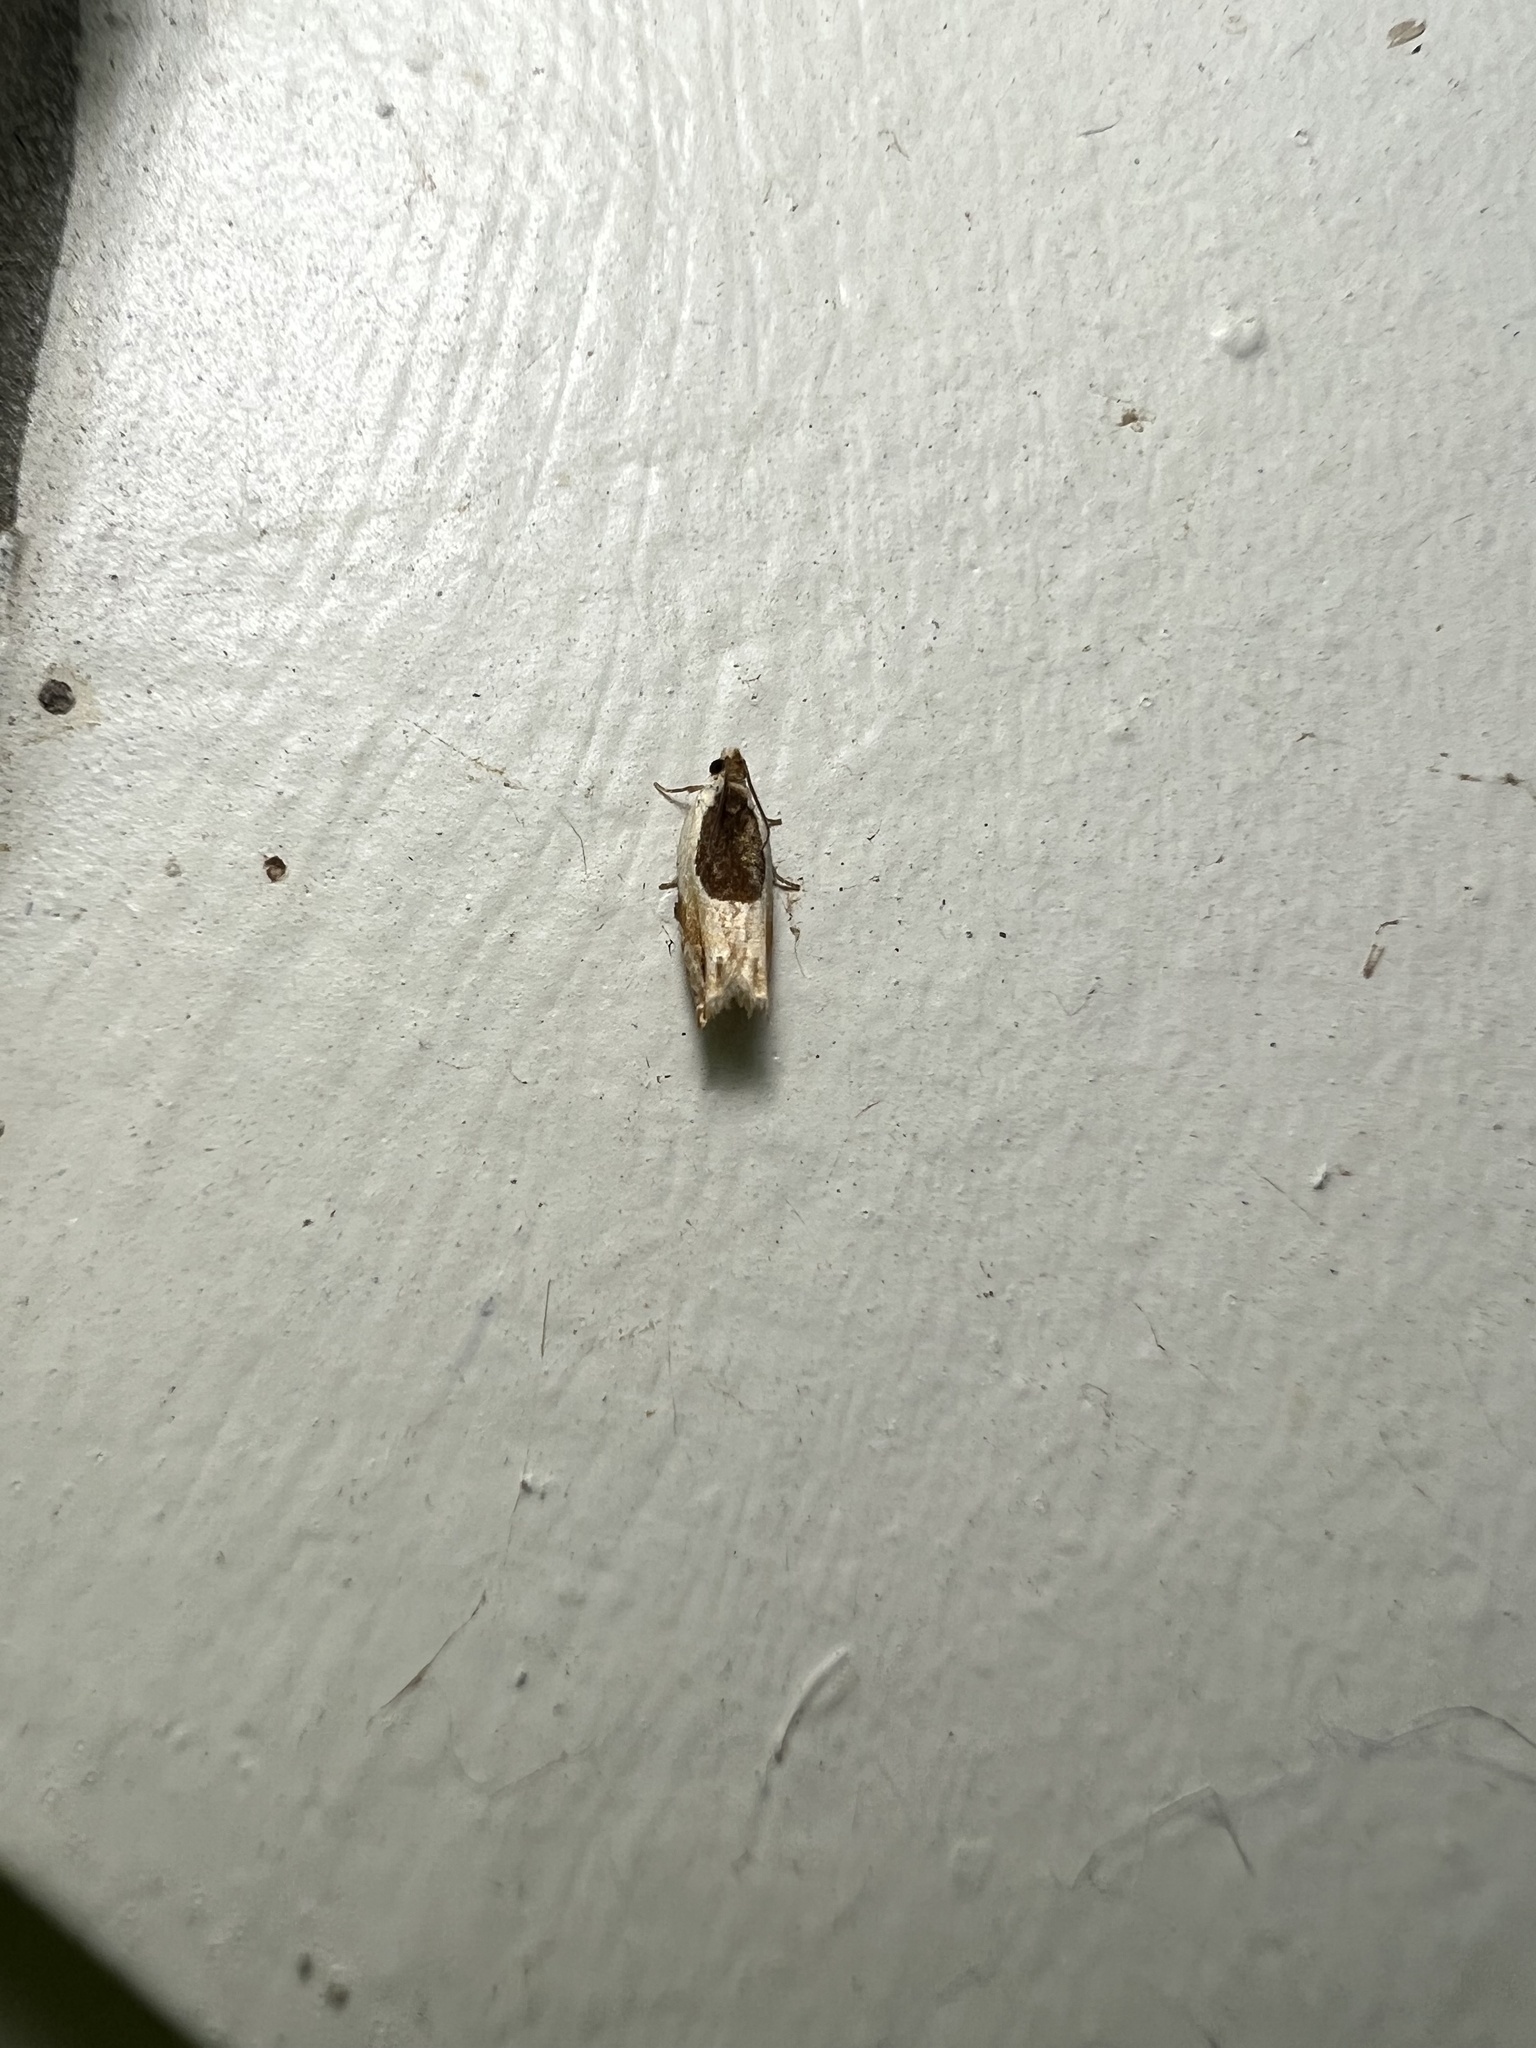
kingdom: Animalia
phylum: Arthropoda
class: Insecta
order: Lepidoptera
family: Tortricidae
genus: Ancylis
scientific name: Ancylis burgessiana
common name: Oak leaffolder moth
